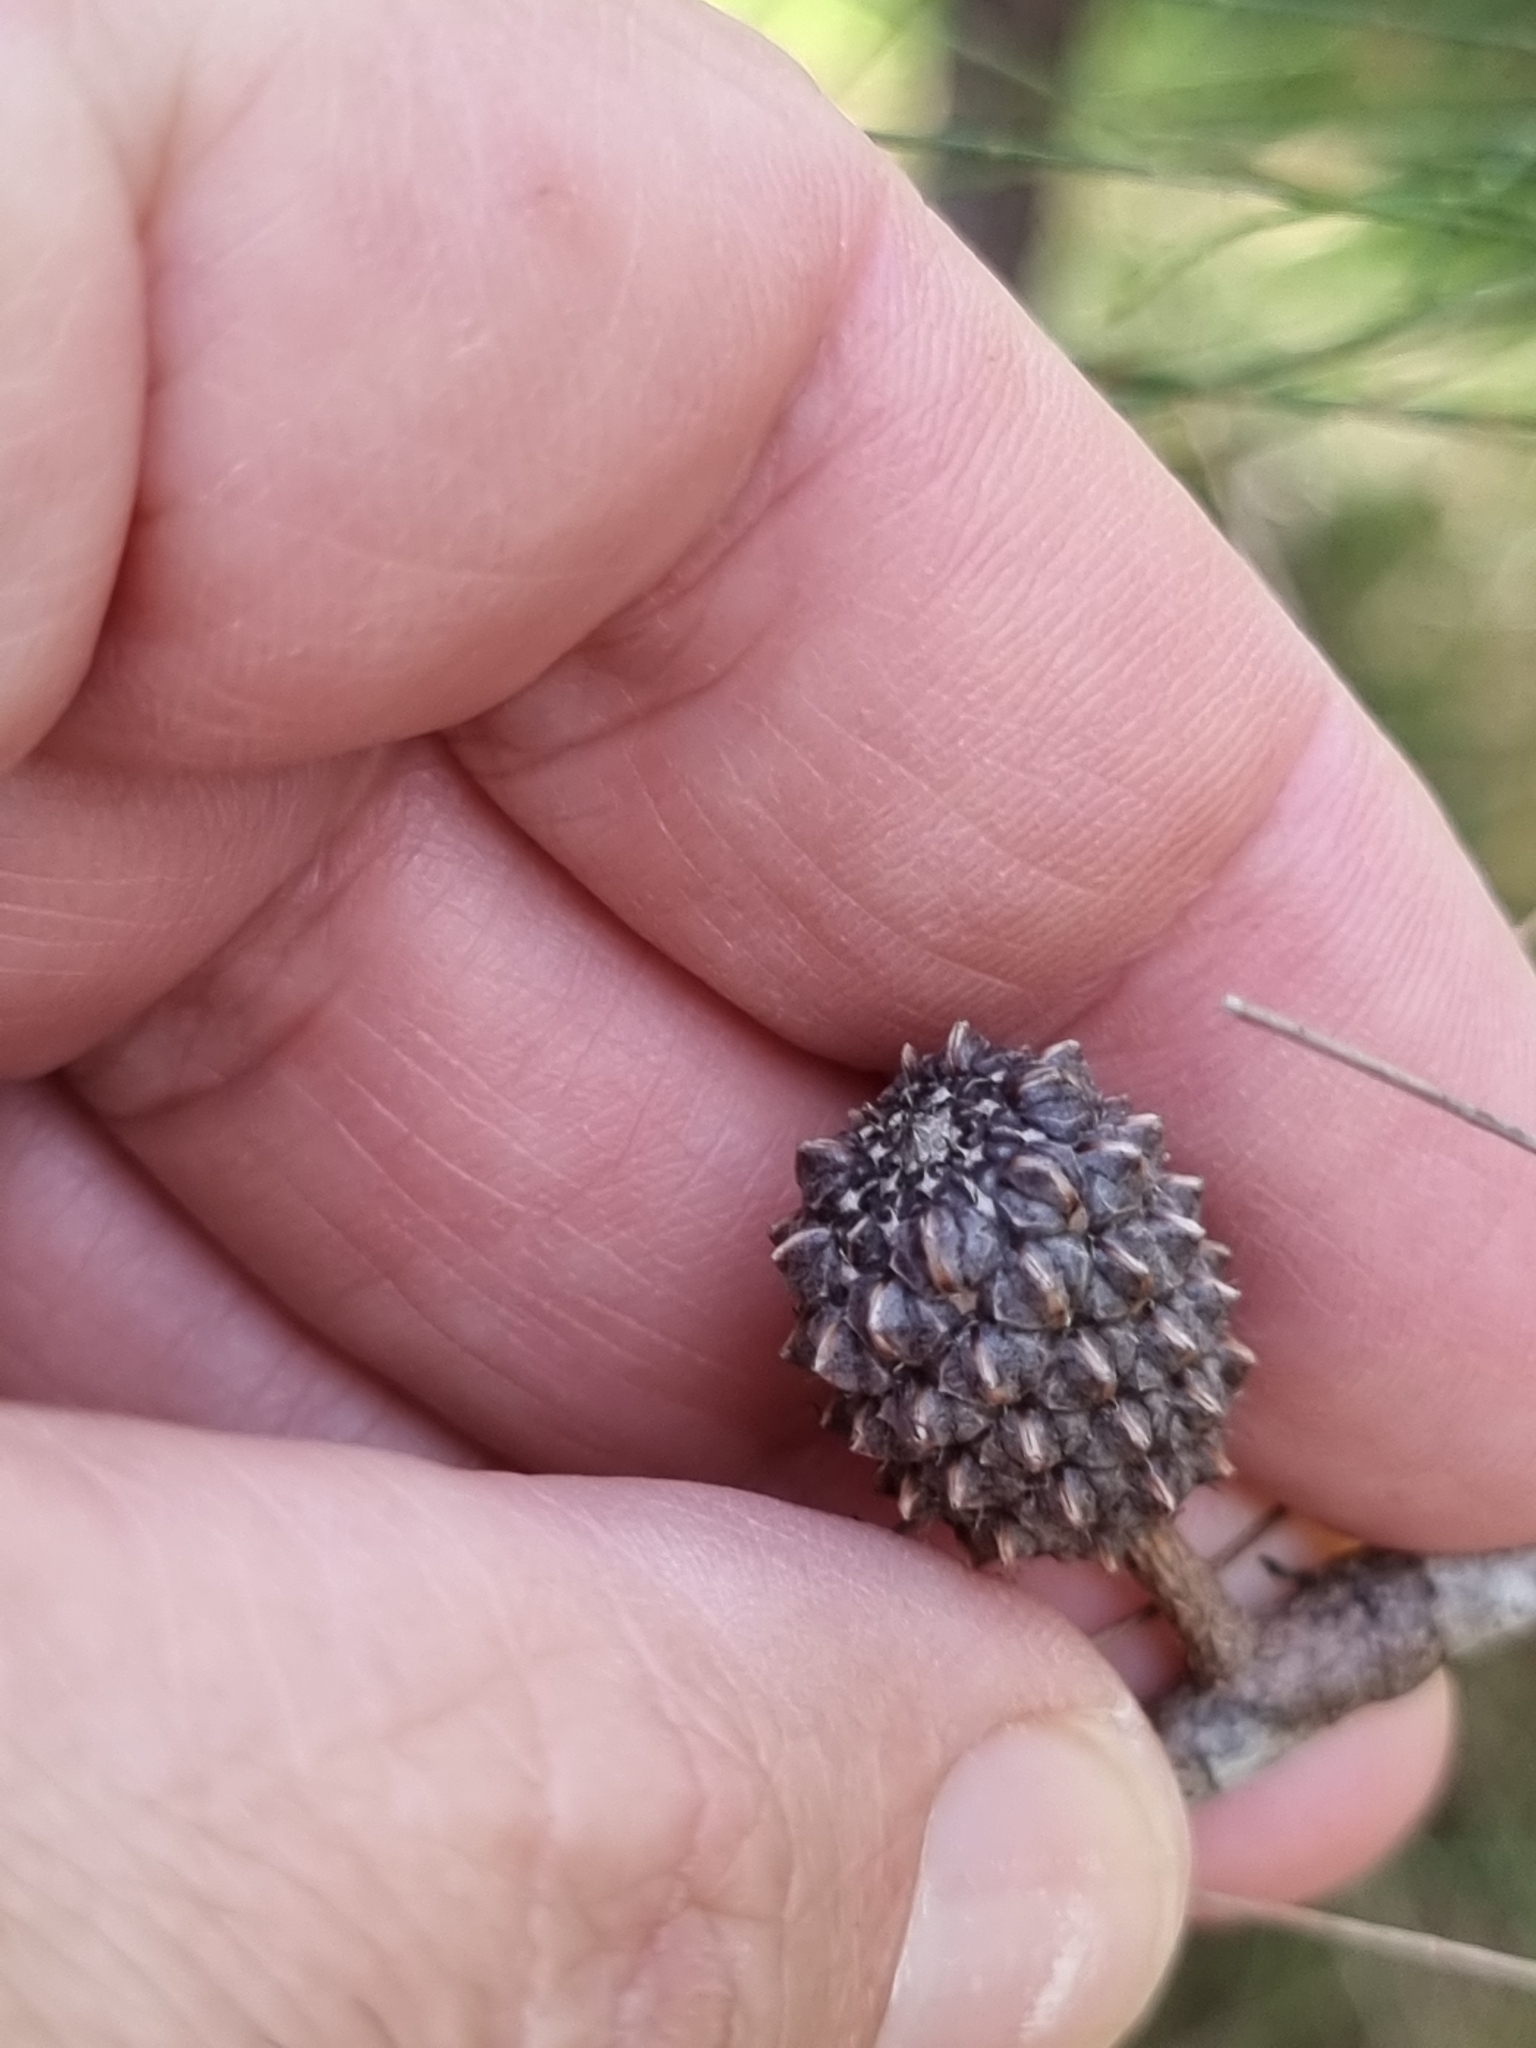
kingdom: Plantae
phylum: Tracheophyta
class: Magnoliopsida
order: Fagales
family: Casuarinaceae
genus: Allocasuarina
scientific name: Allocasuarina littoralis
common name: Black she-oak
